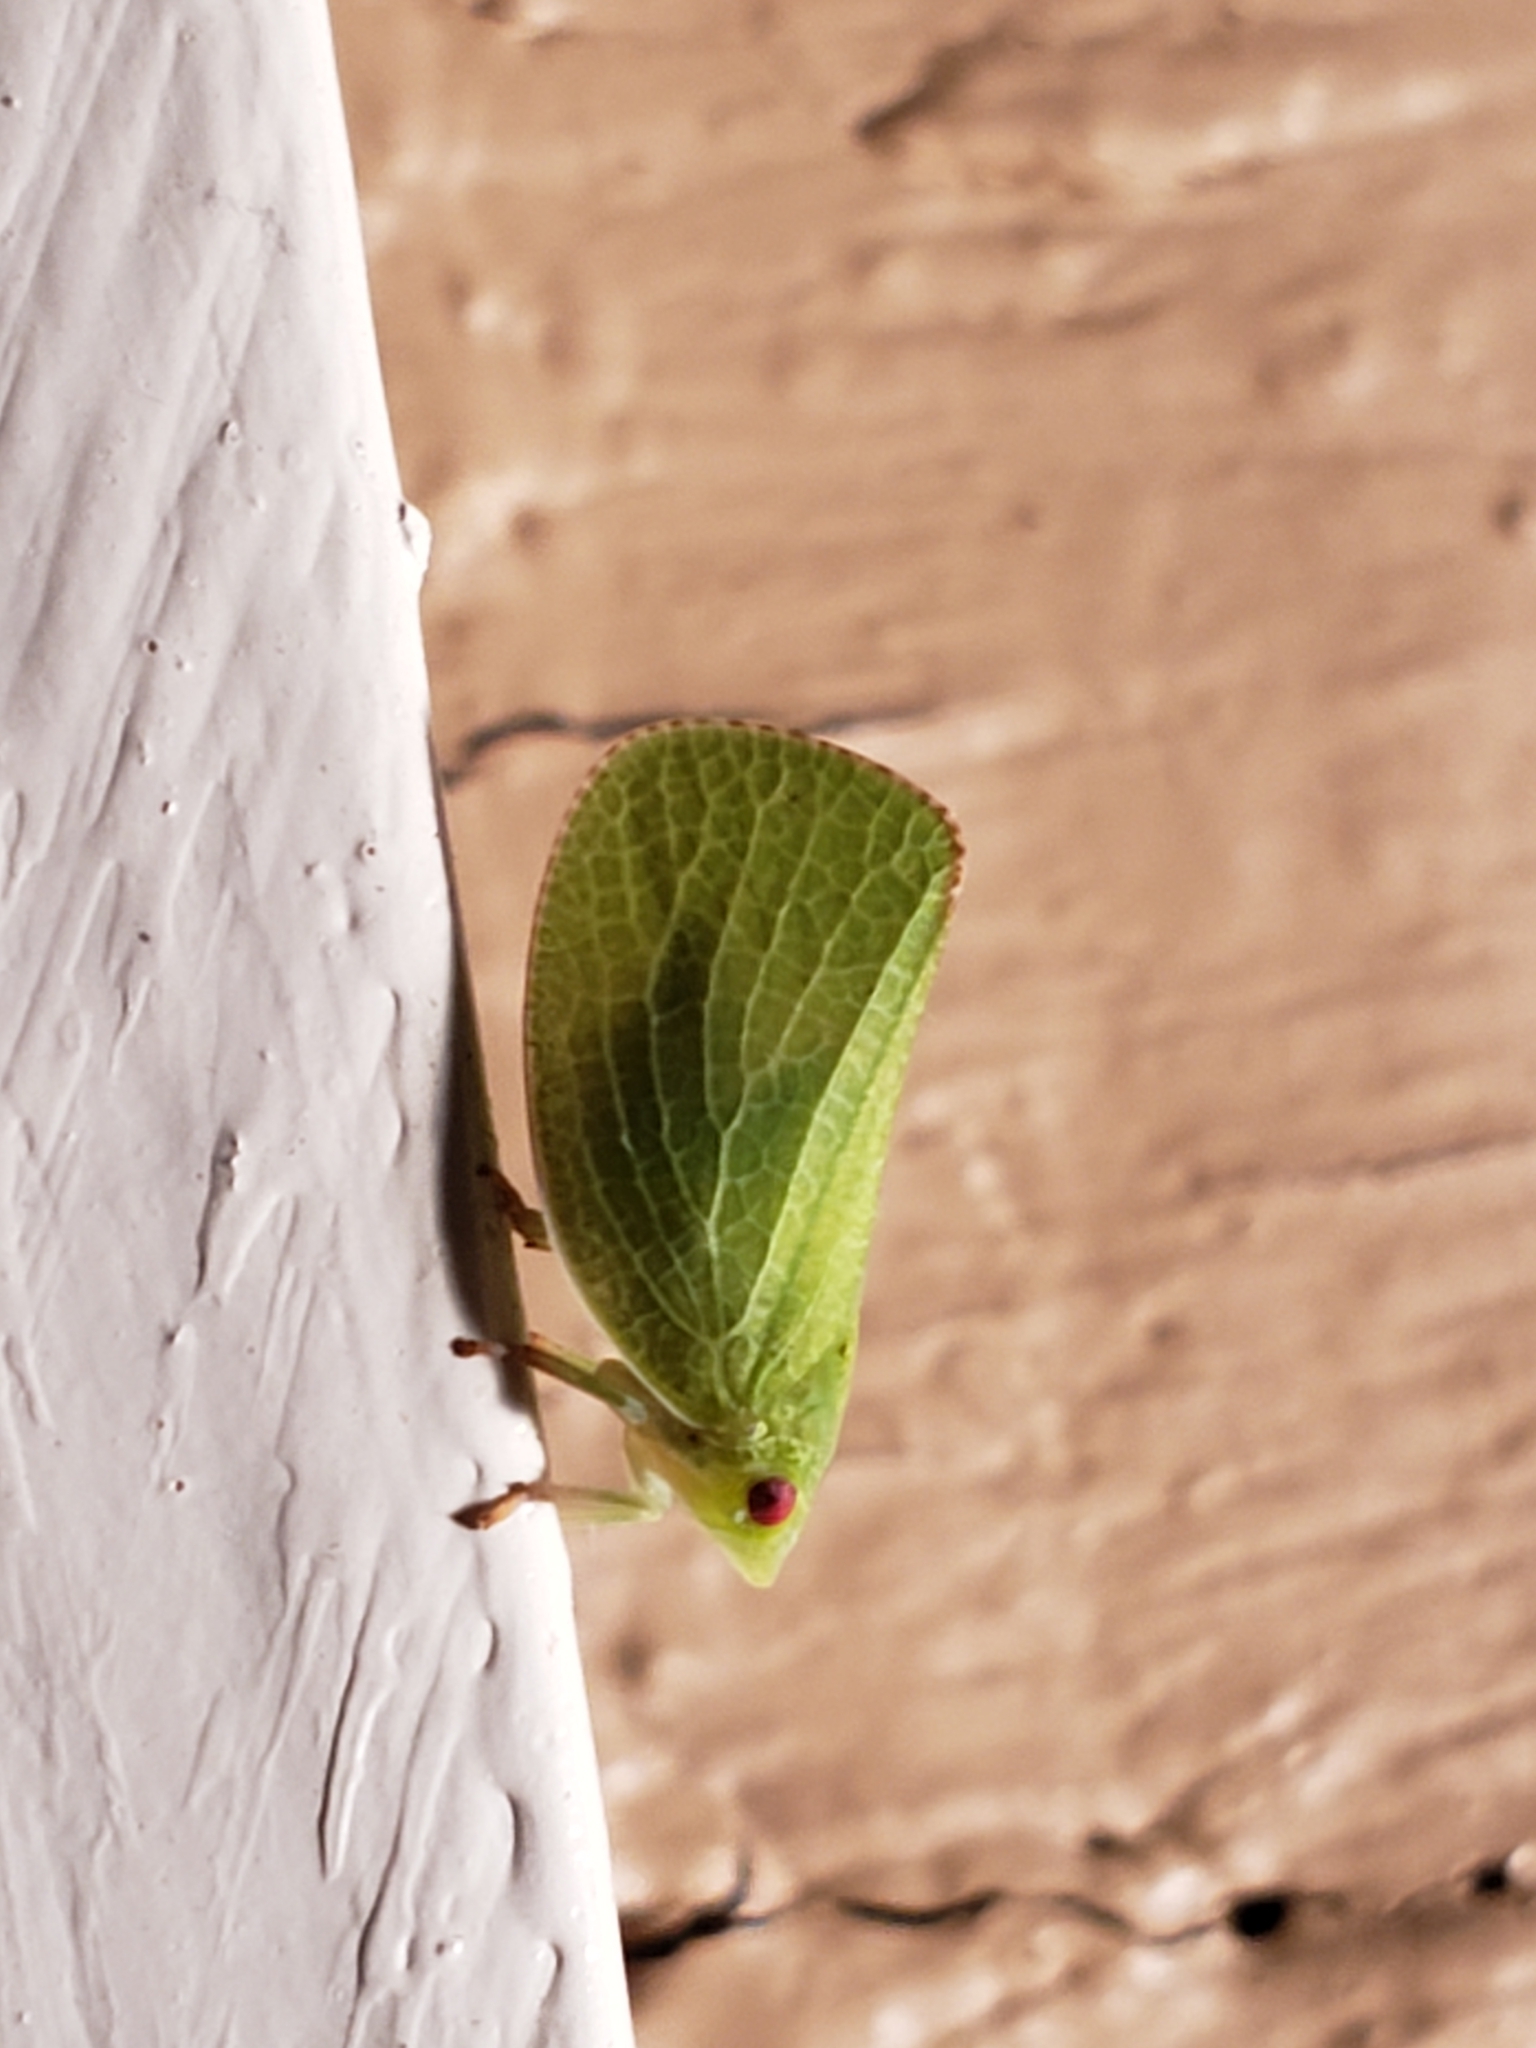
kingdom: Animalia
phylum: Arthropoda
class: Insecta
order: Hemiptera
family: Acanaloniidae
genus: Acanalonia
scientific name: Acanalonia conica
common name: Green cone-headed planthopper
